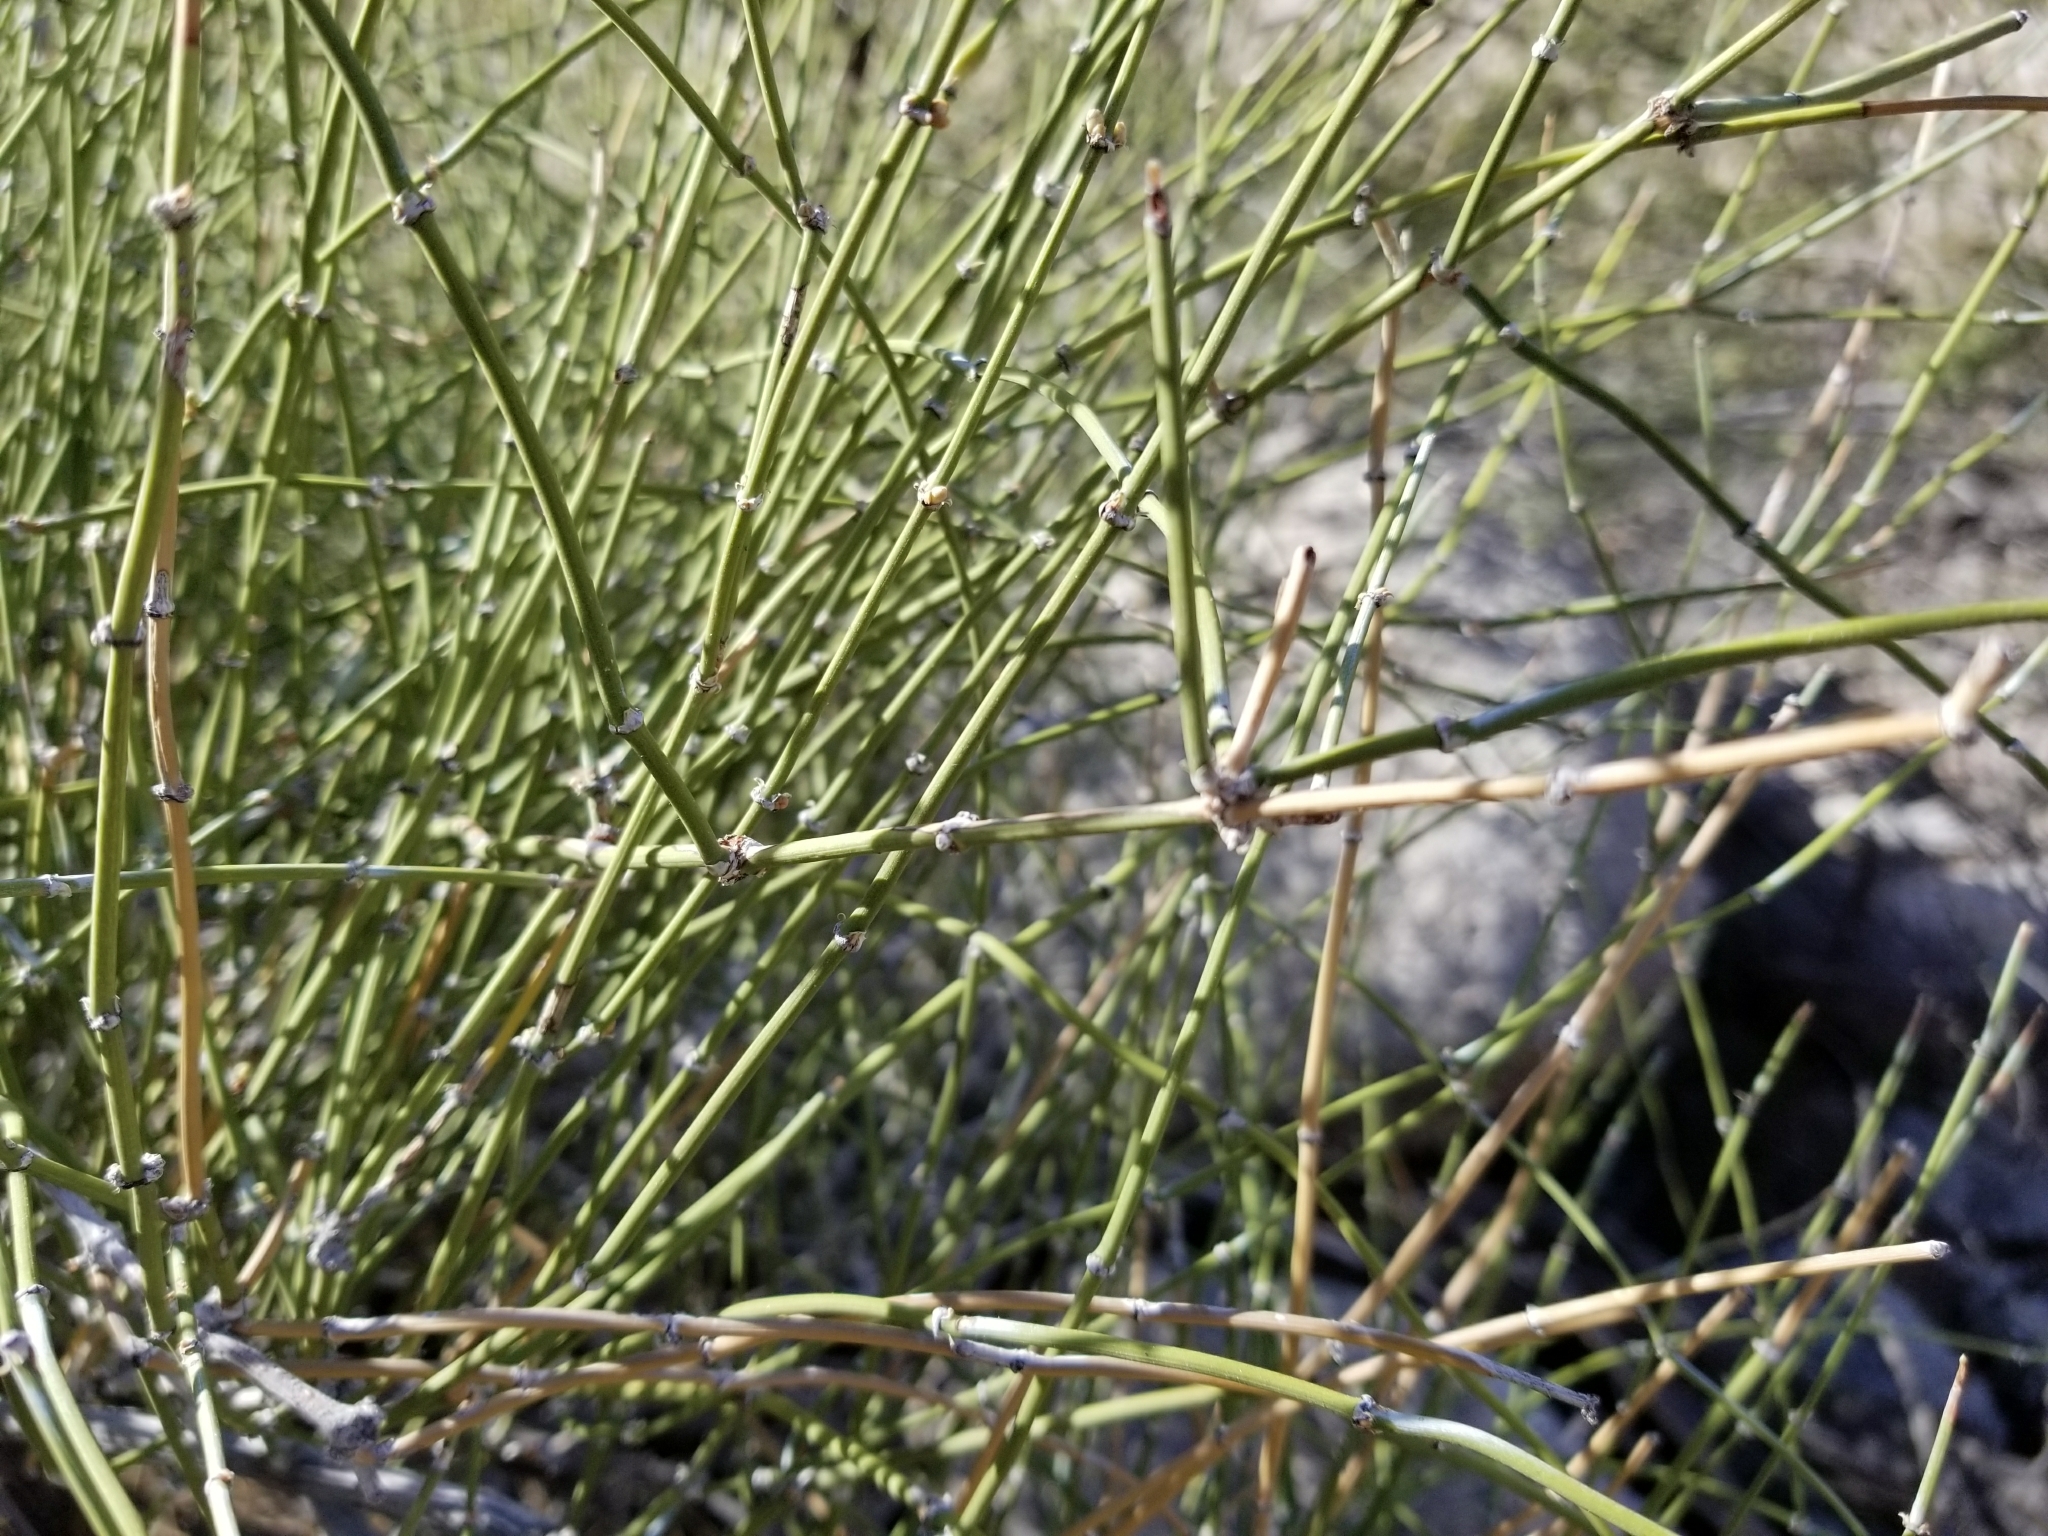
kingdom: Plantae
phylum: Tracheophyta
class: Gnetopsida
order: Ephedrales
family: Ephedraceae
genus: Ephedra
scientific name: Ephedra aspera
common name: Boundary ephedra
